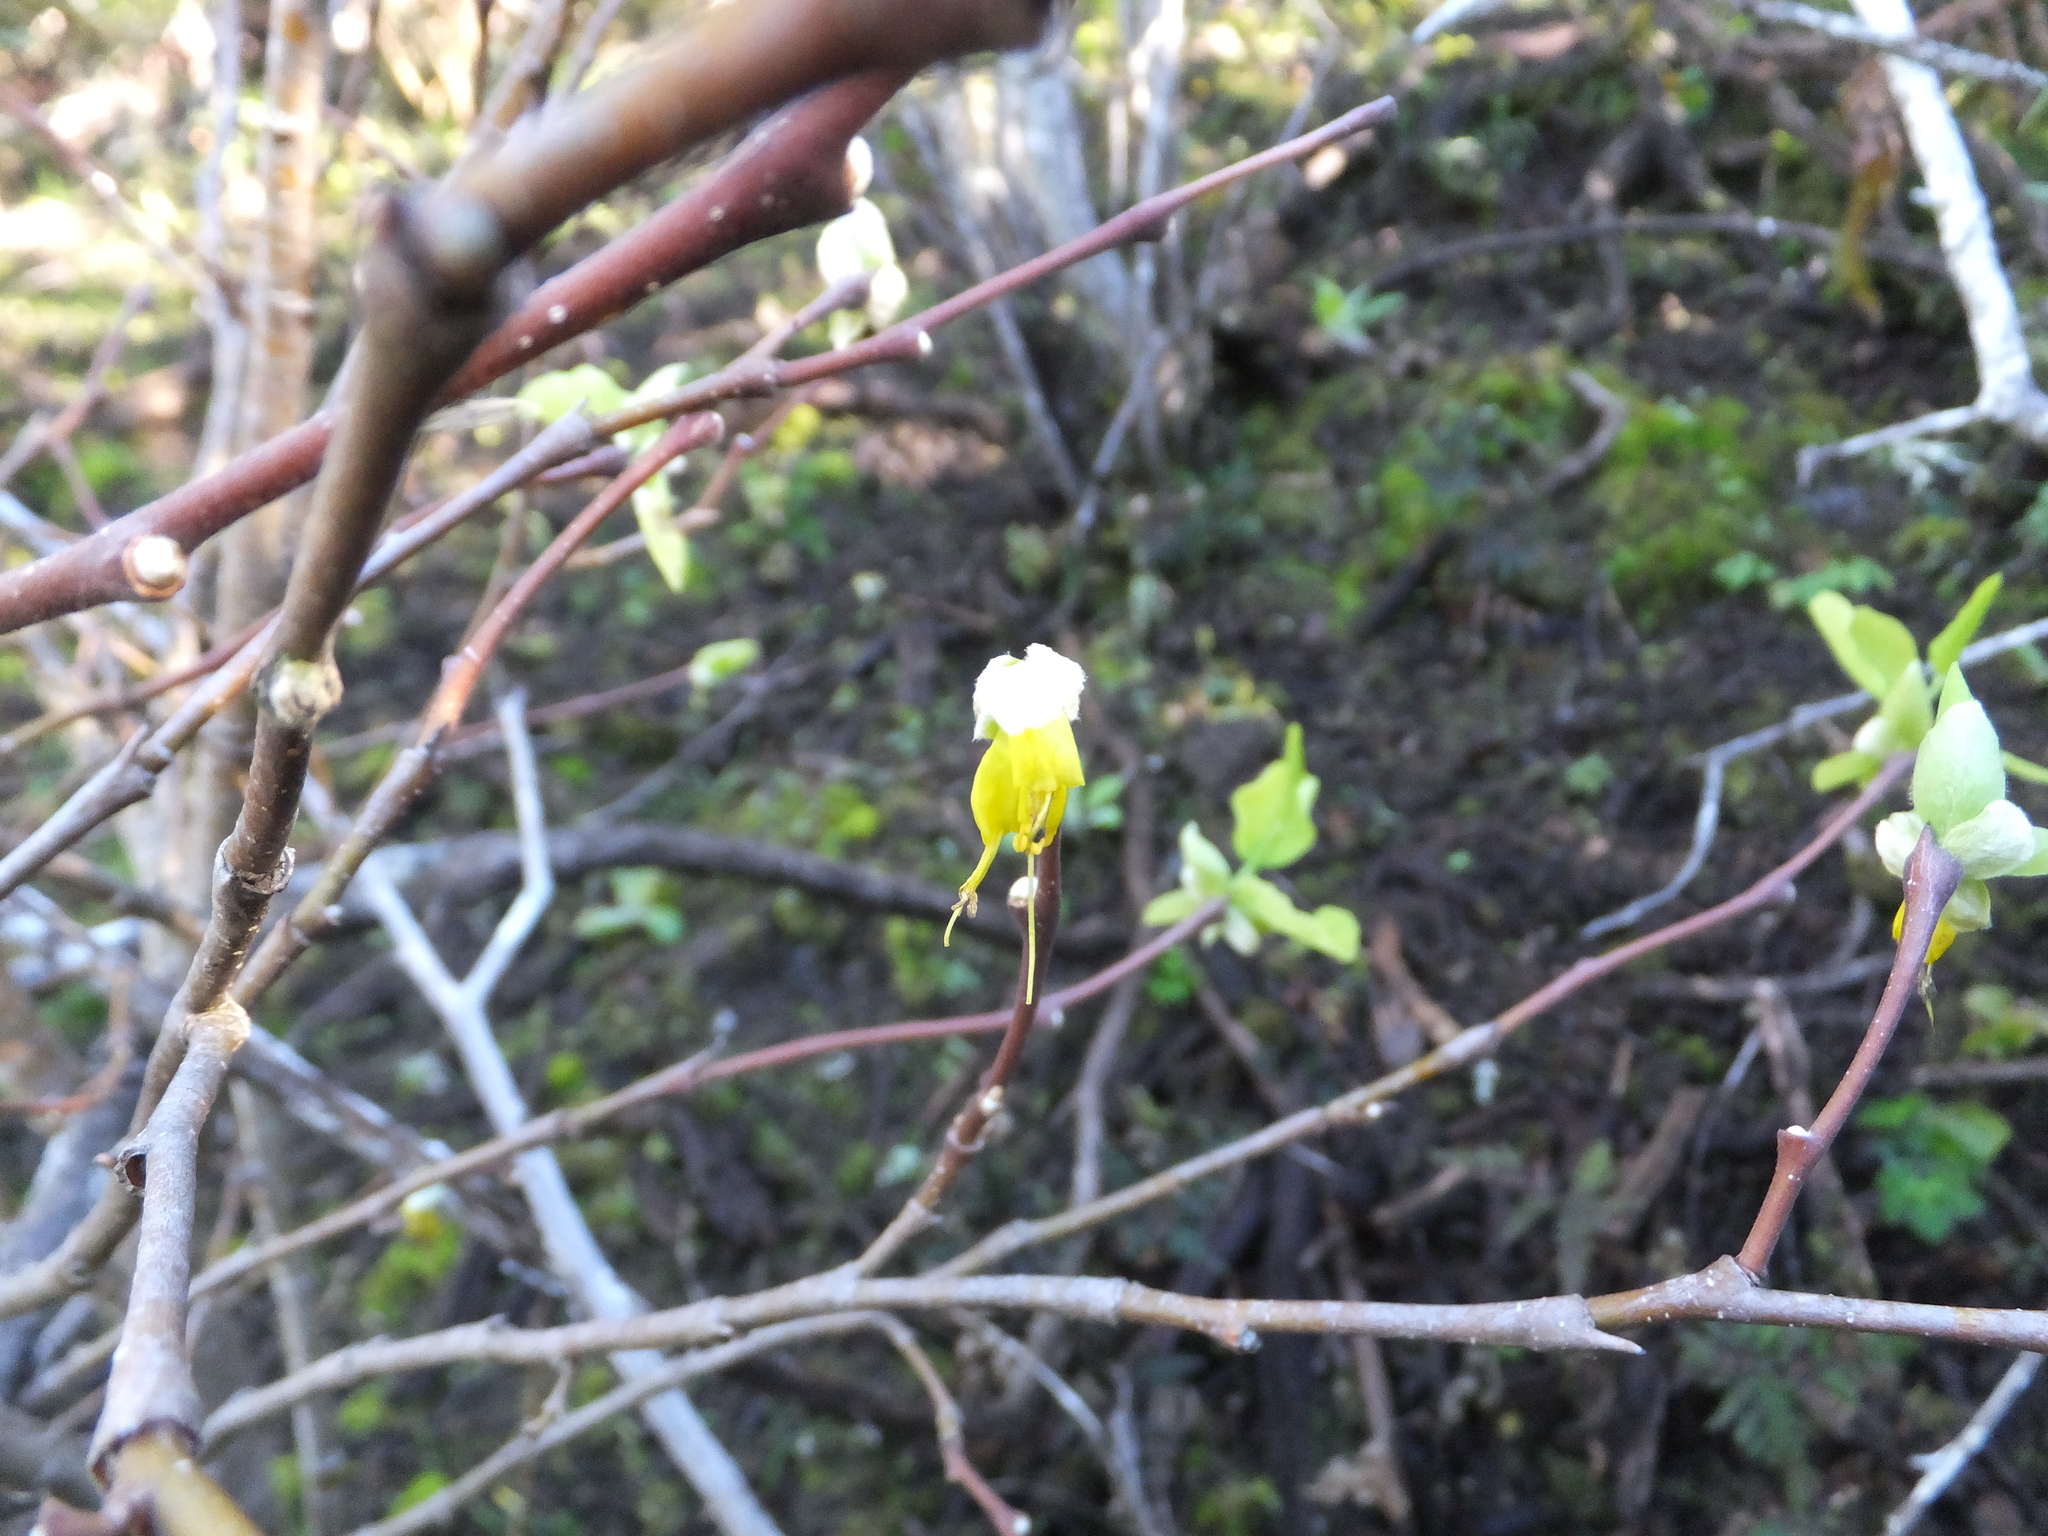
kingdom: Plantae
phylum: Tracheophyta
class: Magnoliopsida
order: Malvales
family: Thymelaeaceae
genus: Dirca
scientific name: Dirca occidentalis
